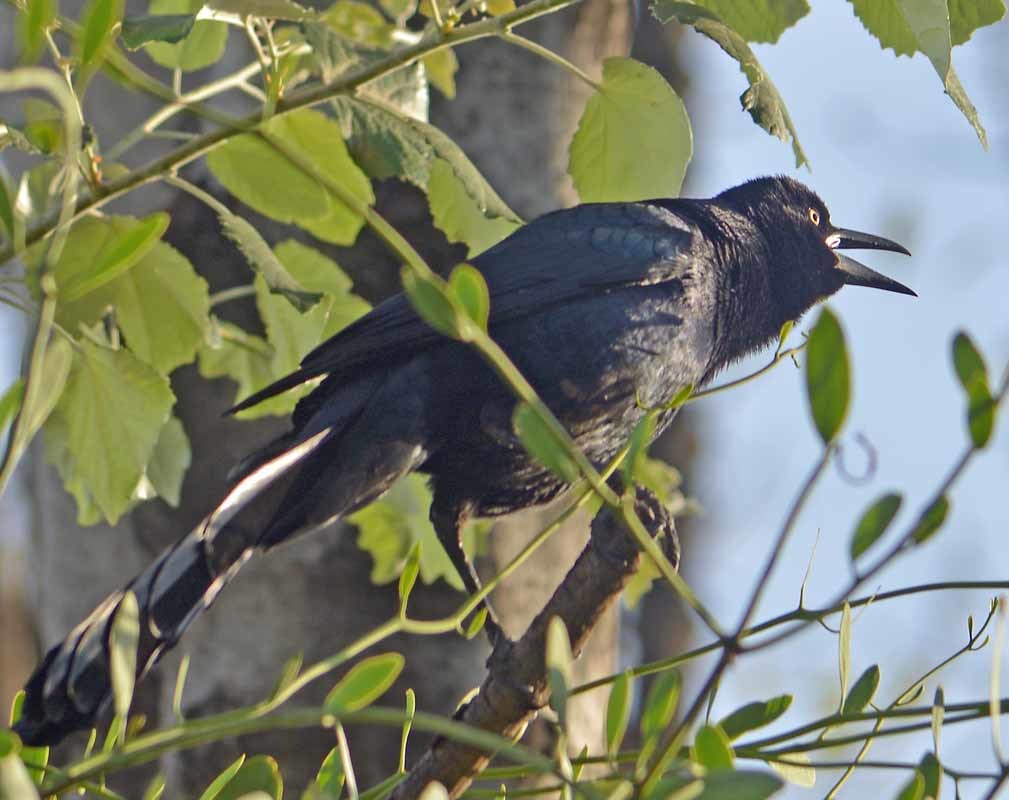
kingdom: Animalia
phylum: Chordata
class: Aves
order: Passeriformes
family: Icteridae
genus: Quiscalus
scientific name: Quiscalus mexicanus
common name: Great-tailed grackle
